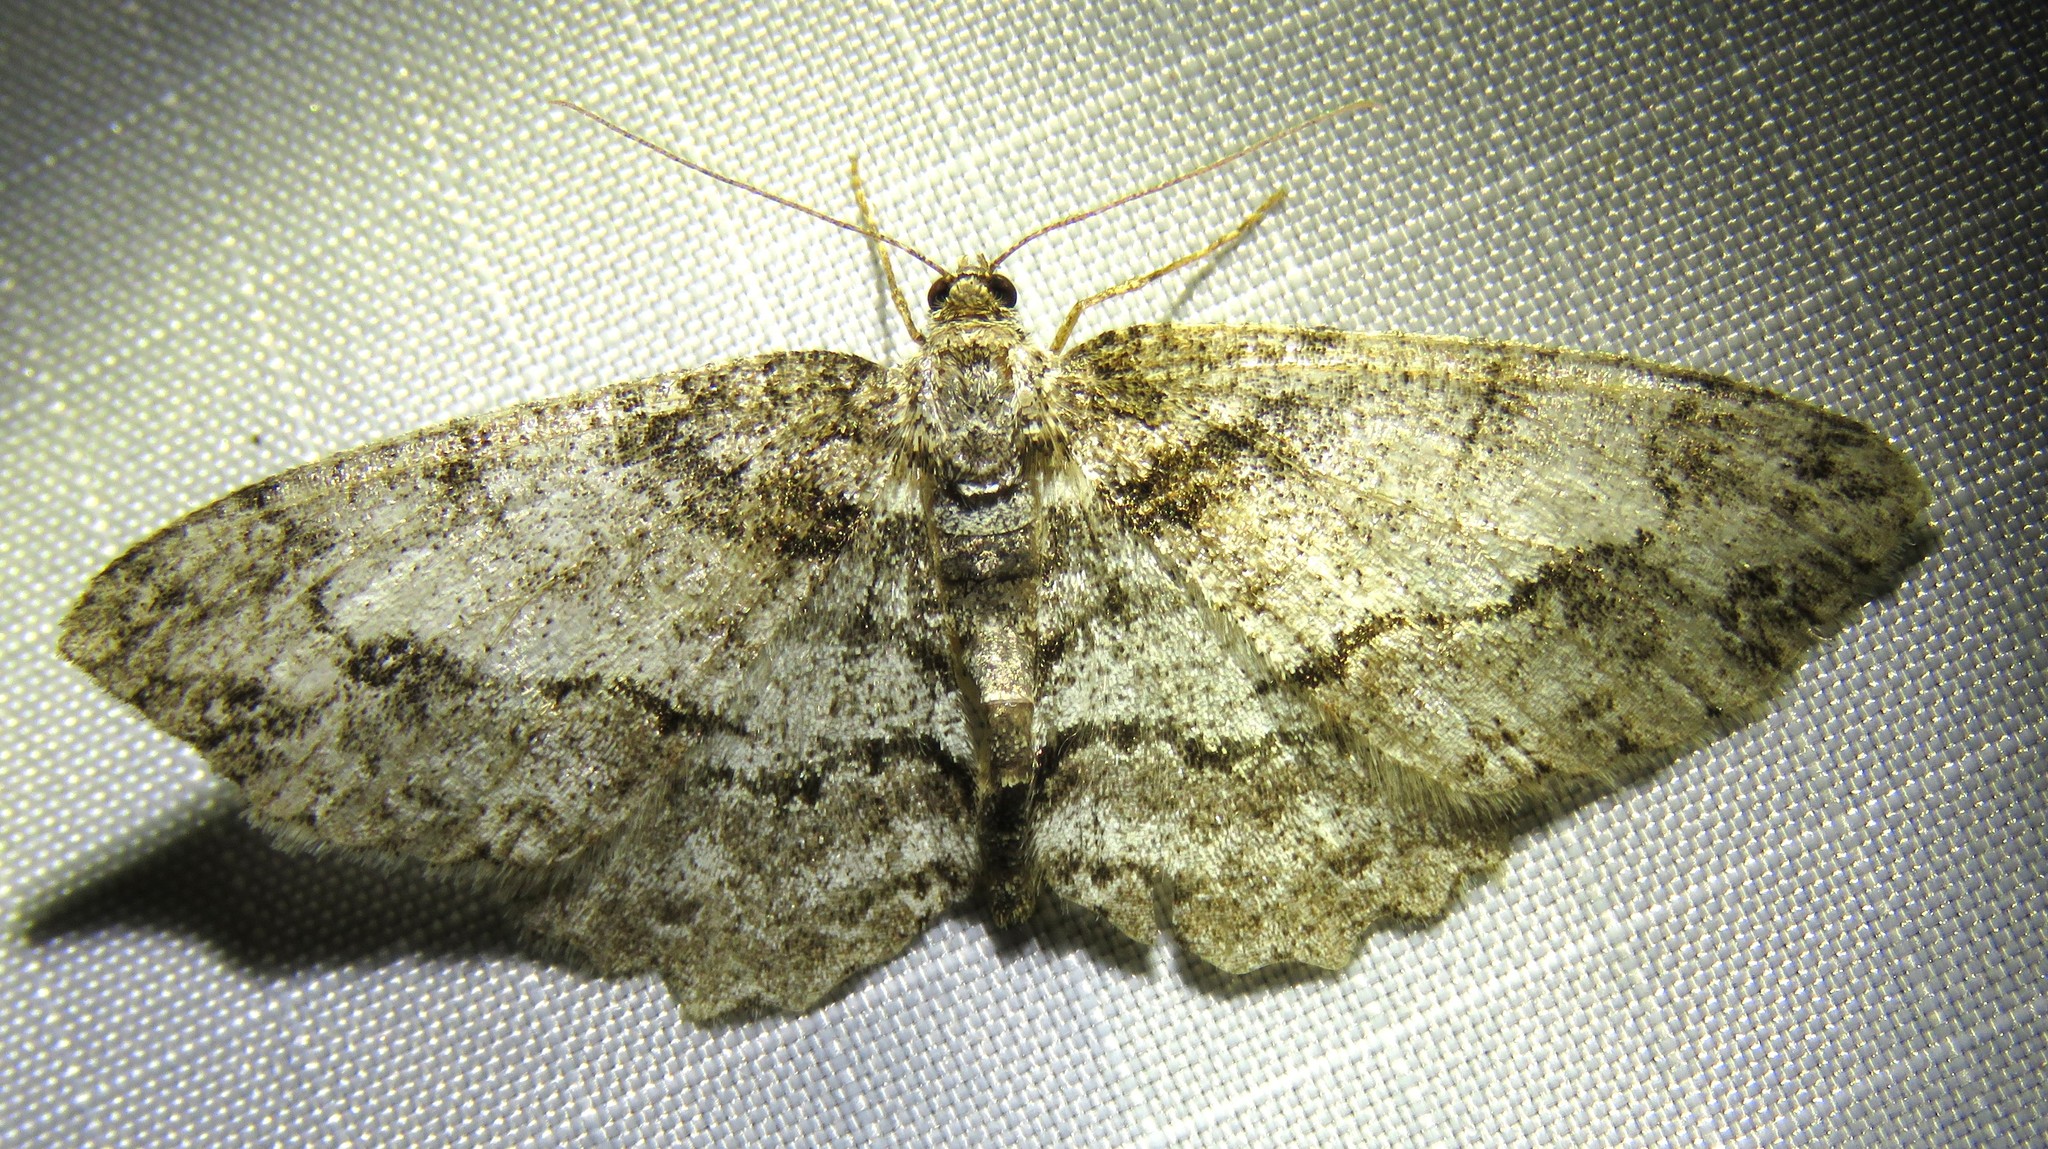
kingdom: Animalia
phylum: Arthropoda
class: Insecta
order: Lepidoptera
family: Geometridae
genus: Paradarisa
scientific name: Paradarisa consonaria
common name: Square spot
